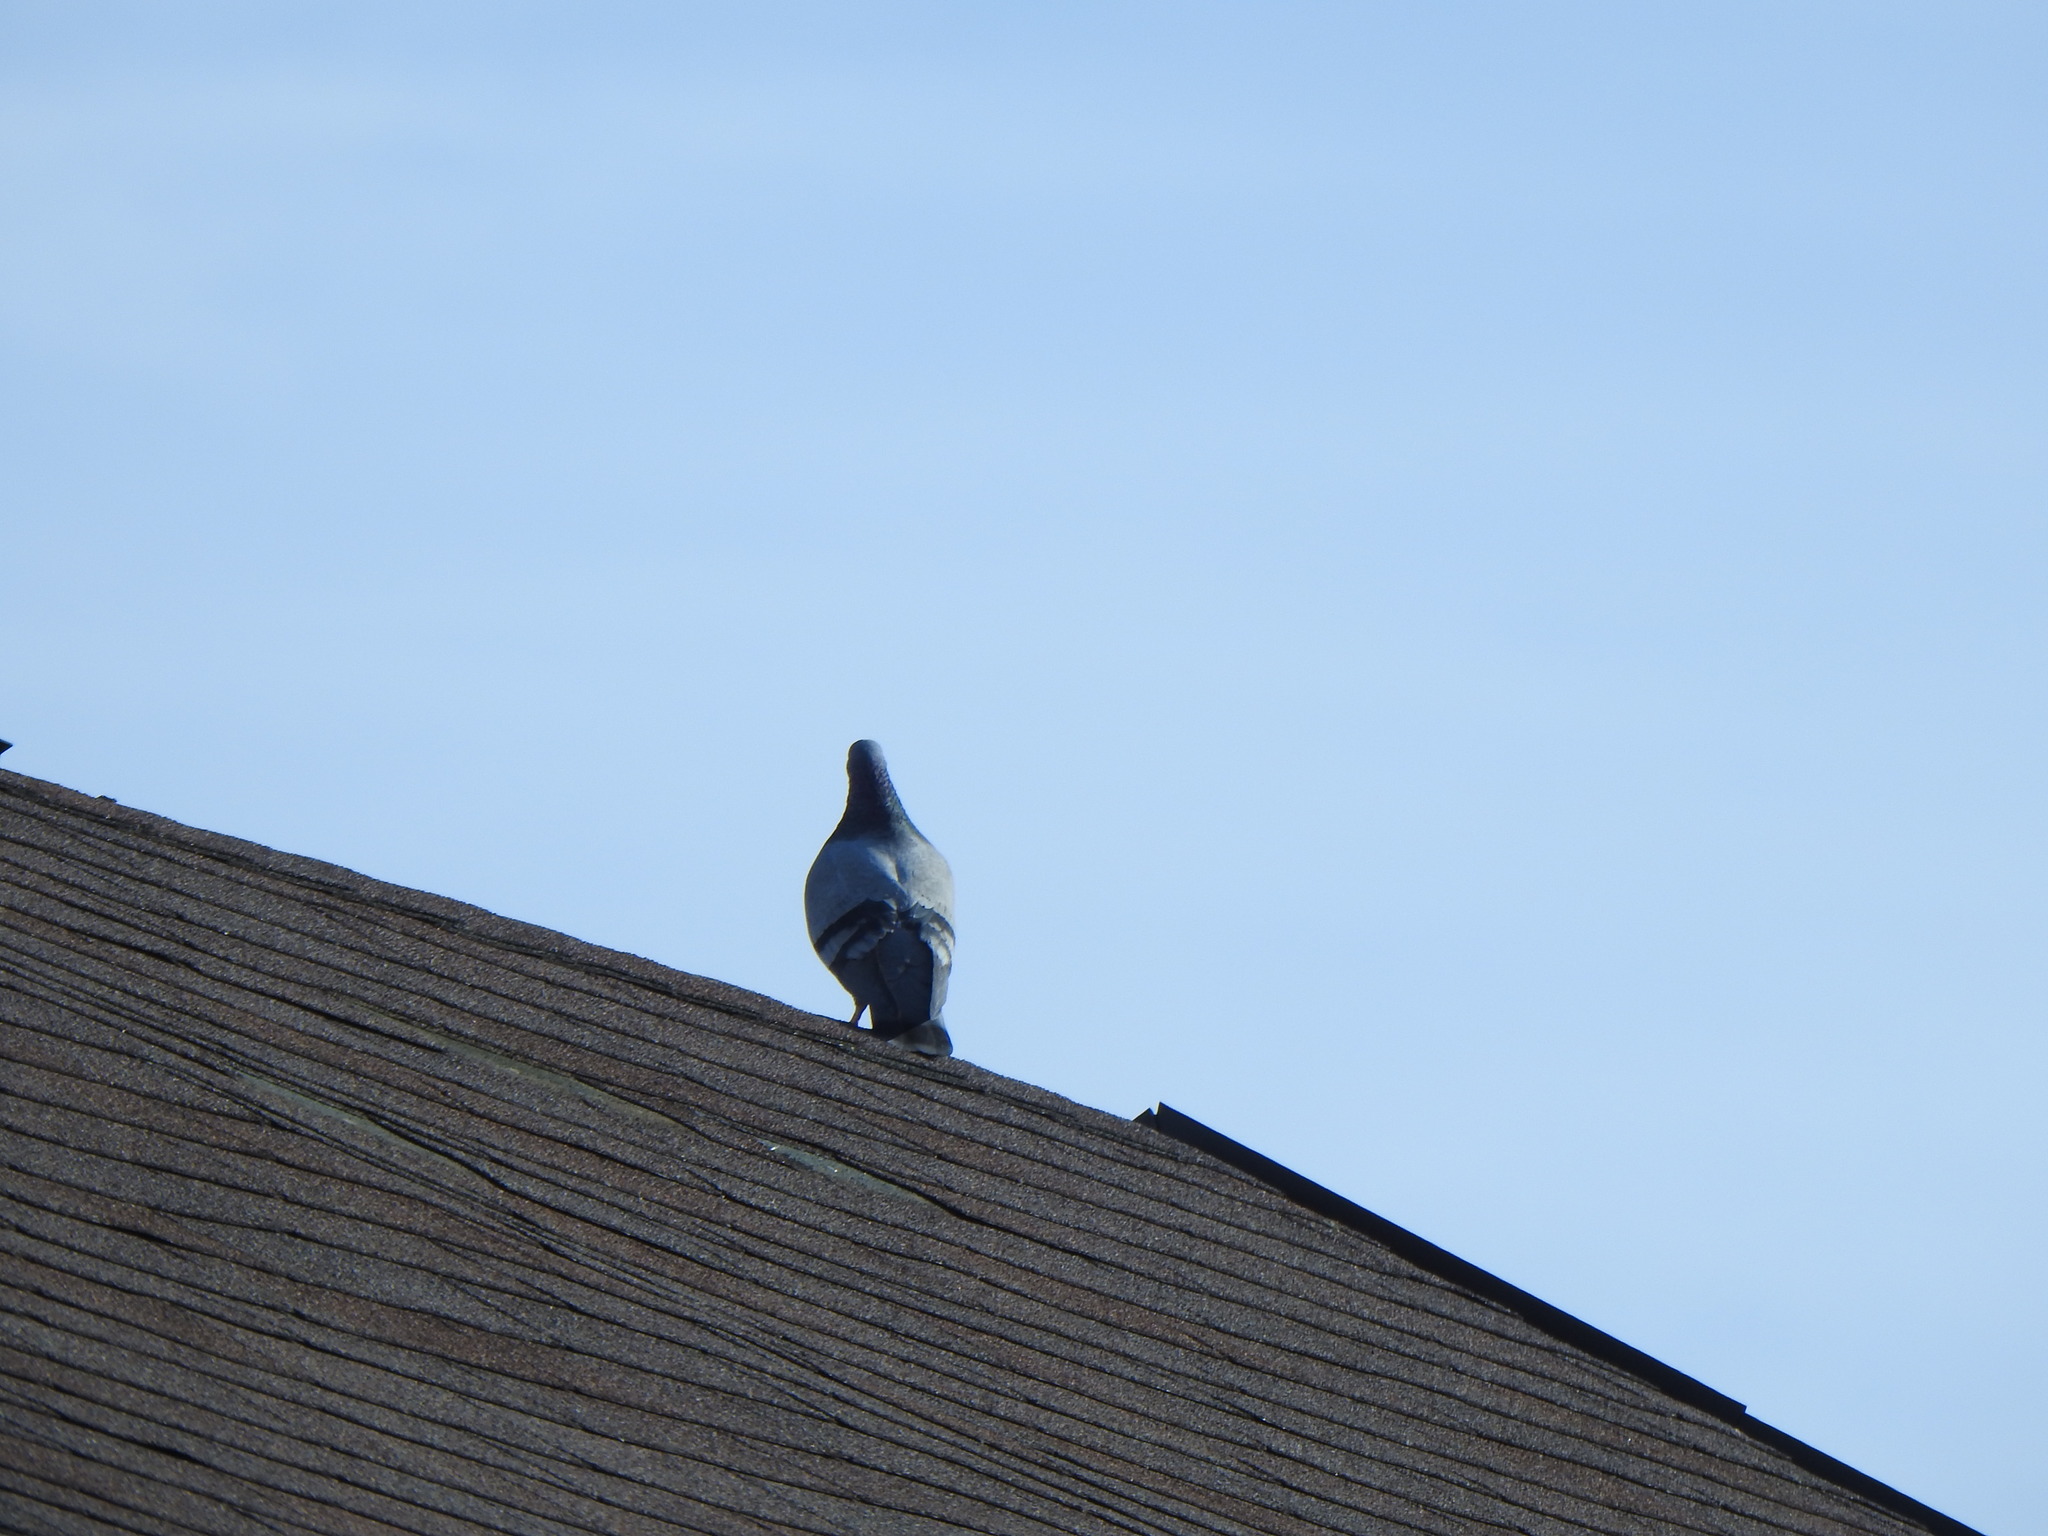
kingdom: Animalia
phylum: Chordata
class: Aves
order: Columbiformes
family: Columbidae
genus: Columba
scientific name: Columba livia
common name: Rock pigeon
